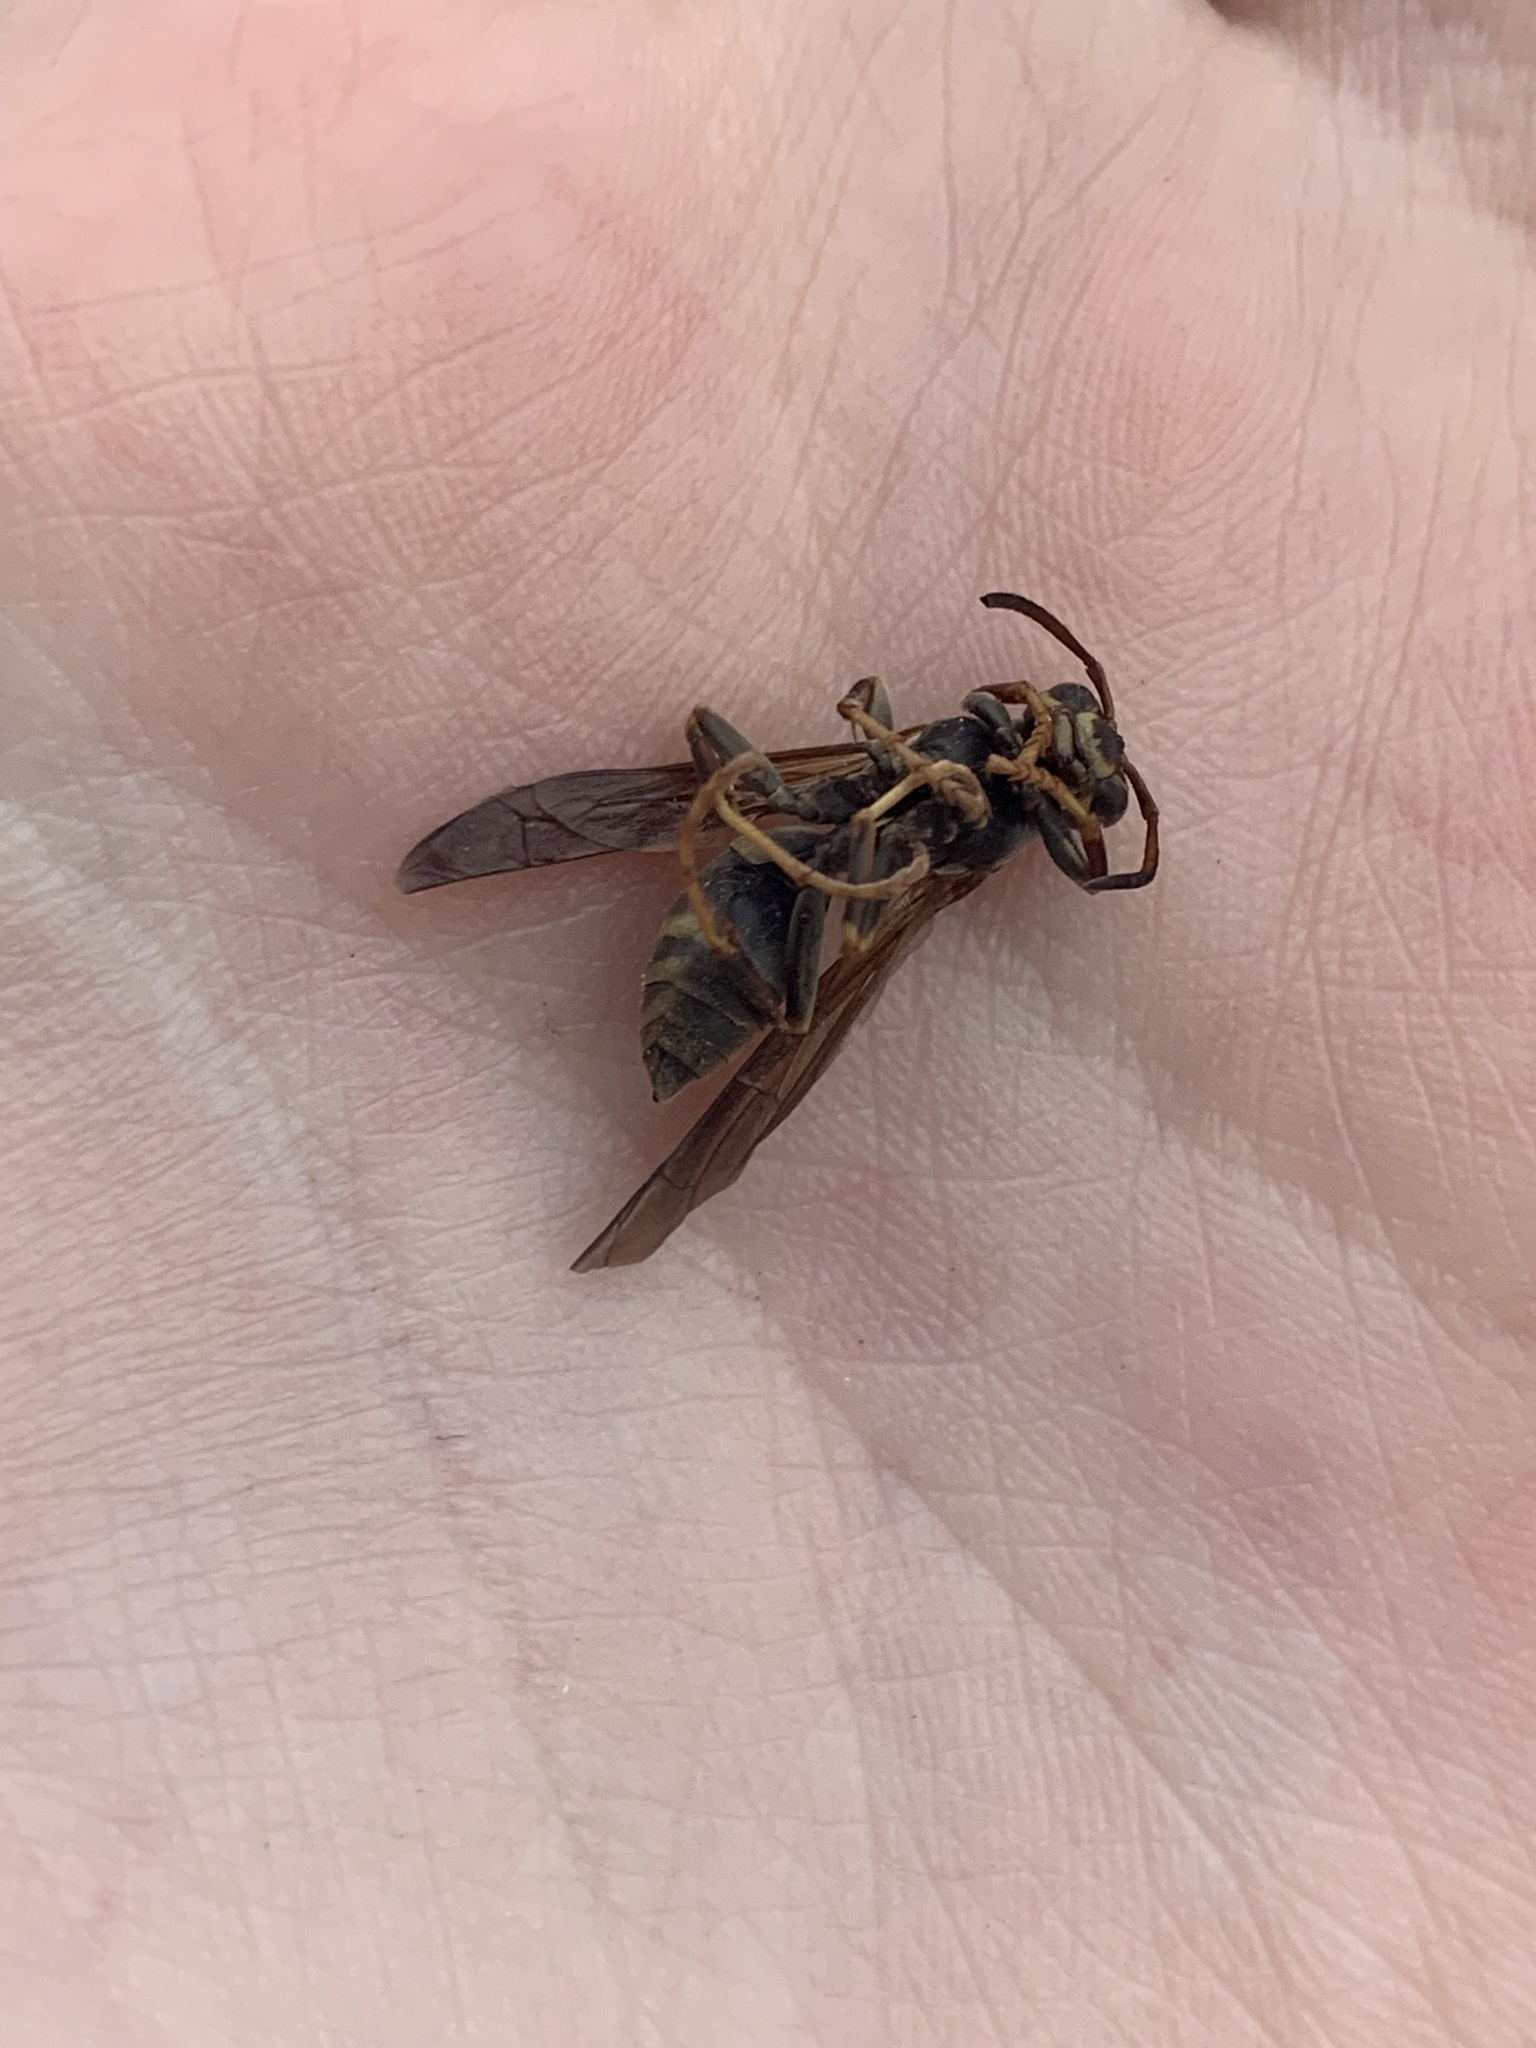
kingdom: Animalia
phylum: Arthropoda
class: Insecta
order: Hymenoptera
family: Eumenidae
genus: Polistes
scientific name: Polistes fuscatus
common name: Dark paper wasp
